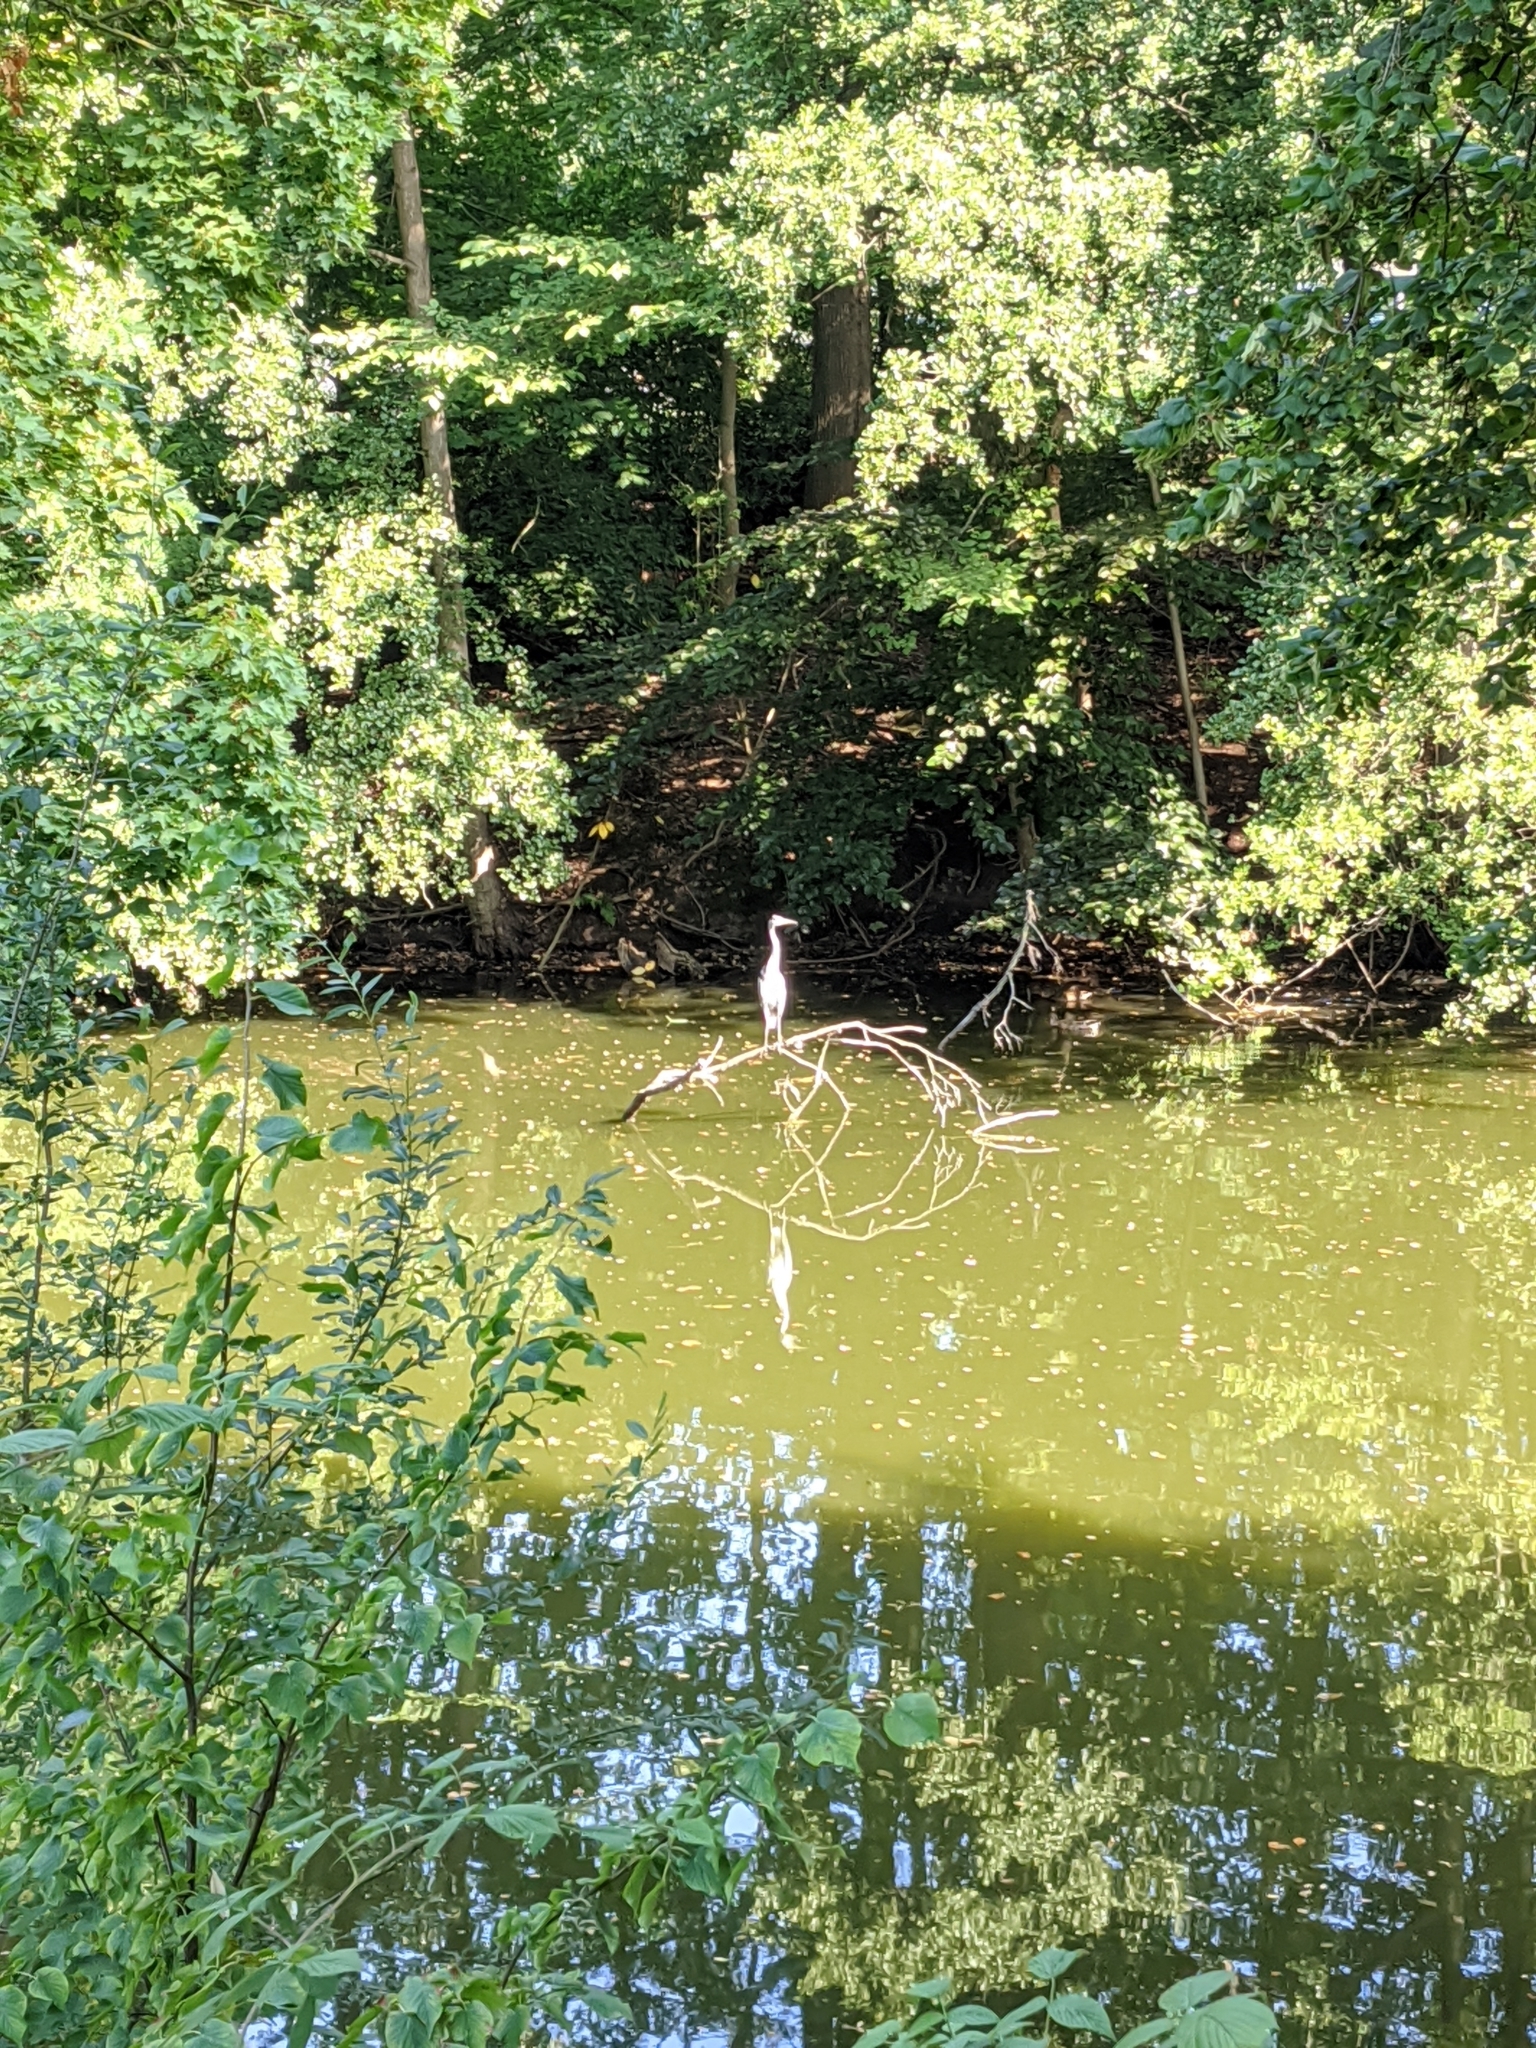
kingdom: Animalia
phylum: Chordata
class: Aves
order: Pelecaniformes
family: Ardeidae
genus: Ardea
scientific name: Ardea cinerea
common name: Grey heron
